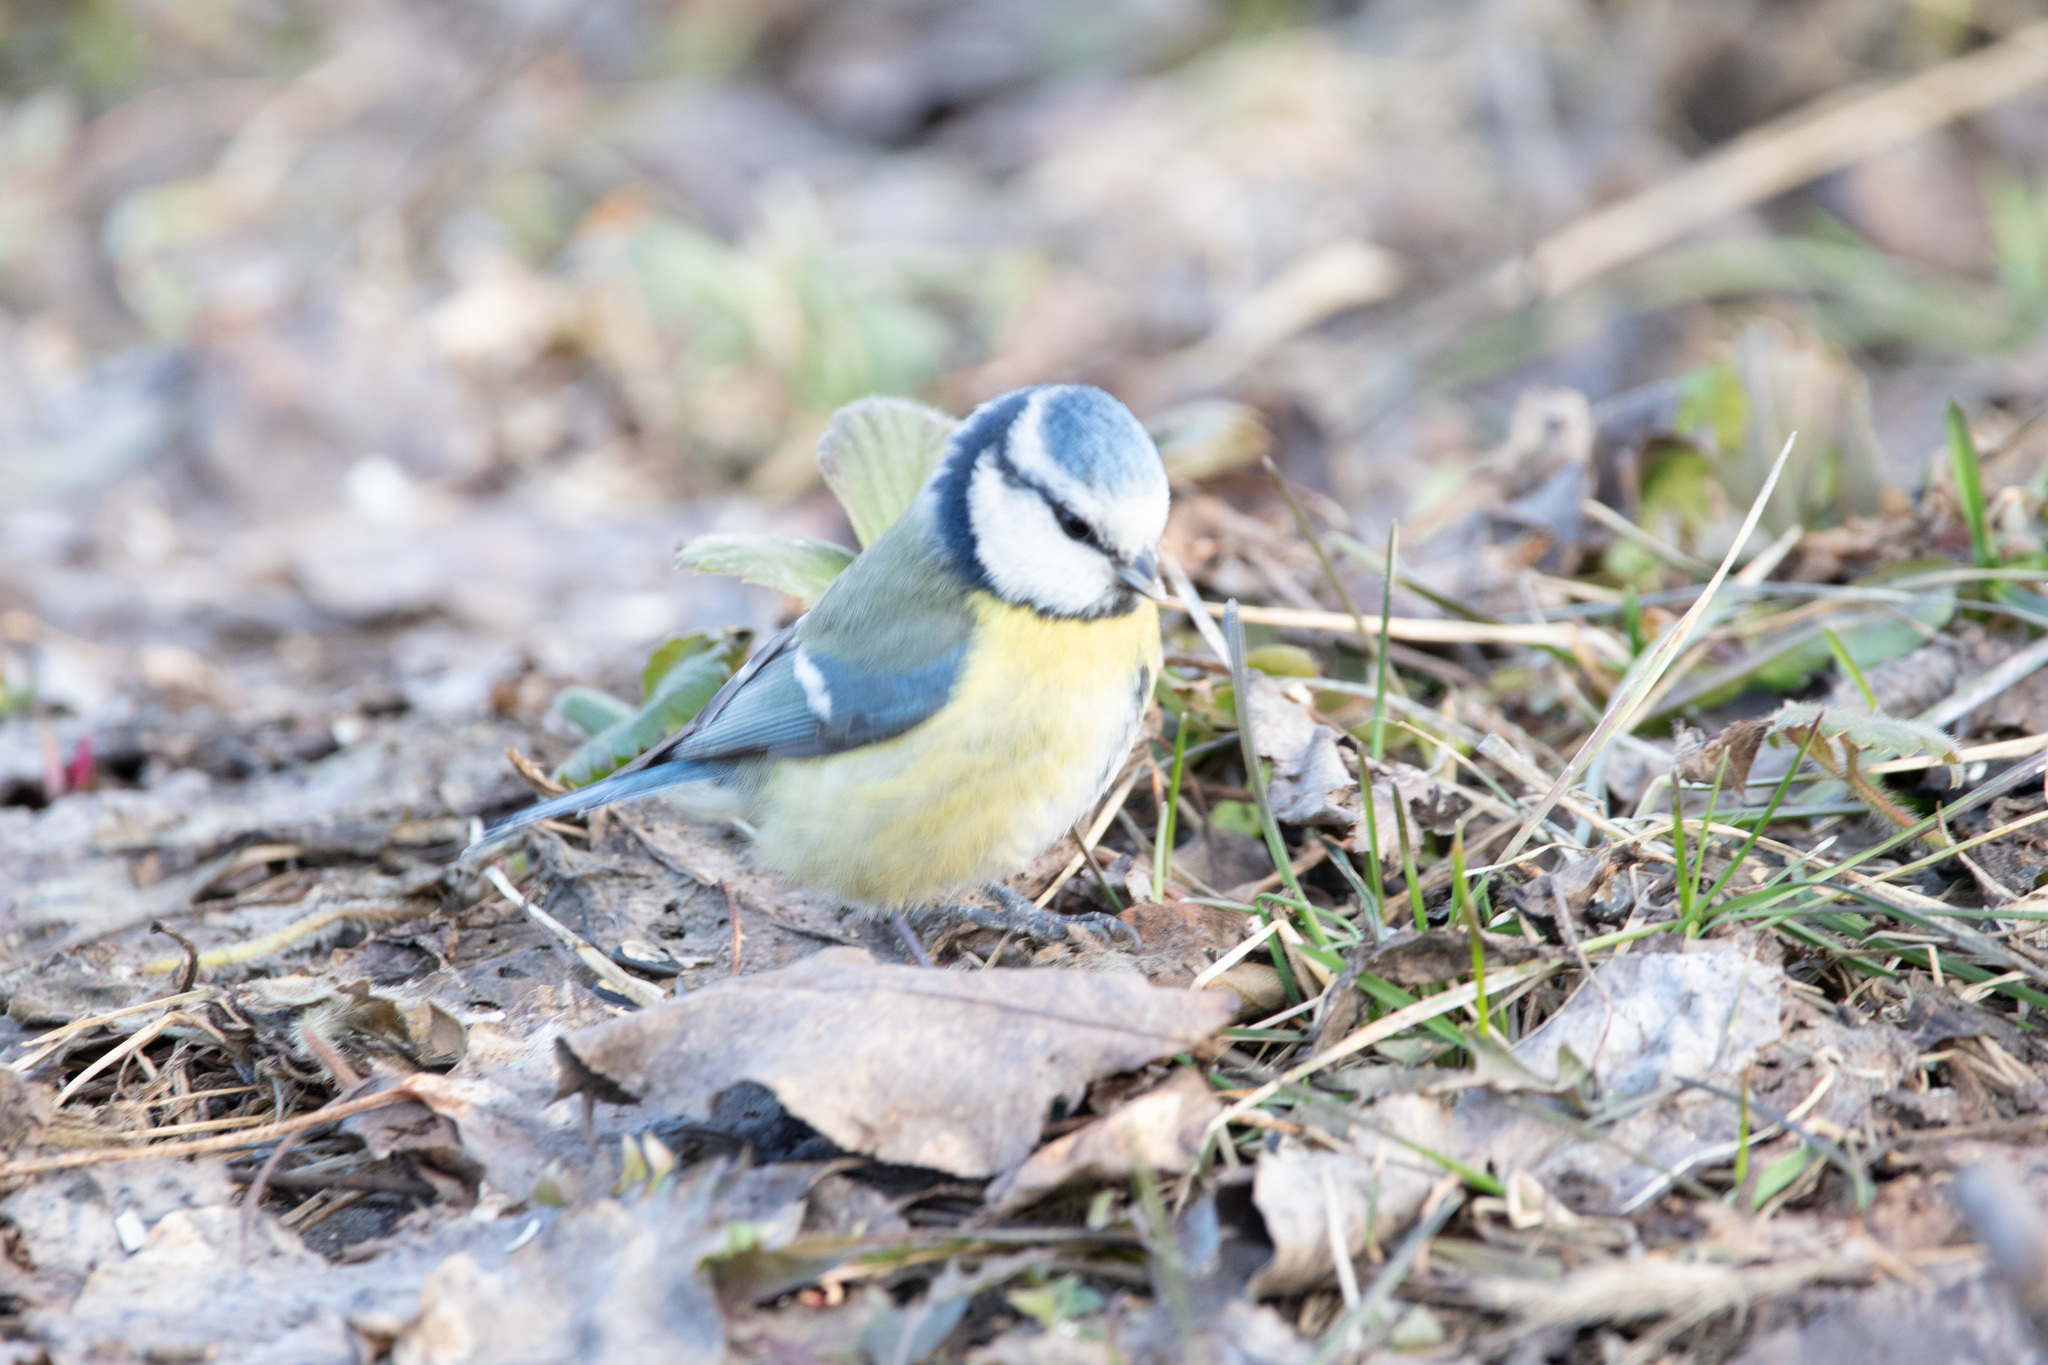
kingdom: Animalia
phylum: Chordata
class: Aves
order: Passeriformes
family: Paridae
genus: Cyanistes
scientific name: Cyanistes caeruleus
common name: Eurasian blue tit
